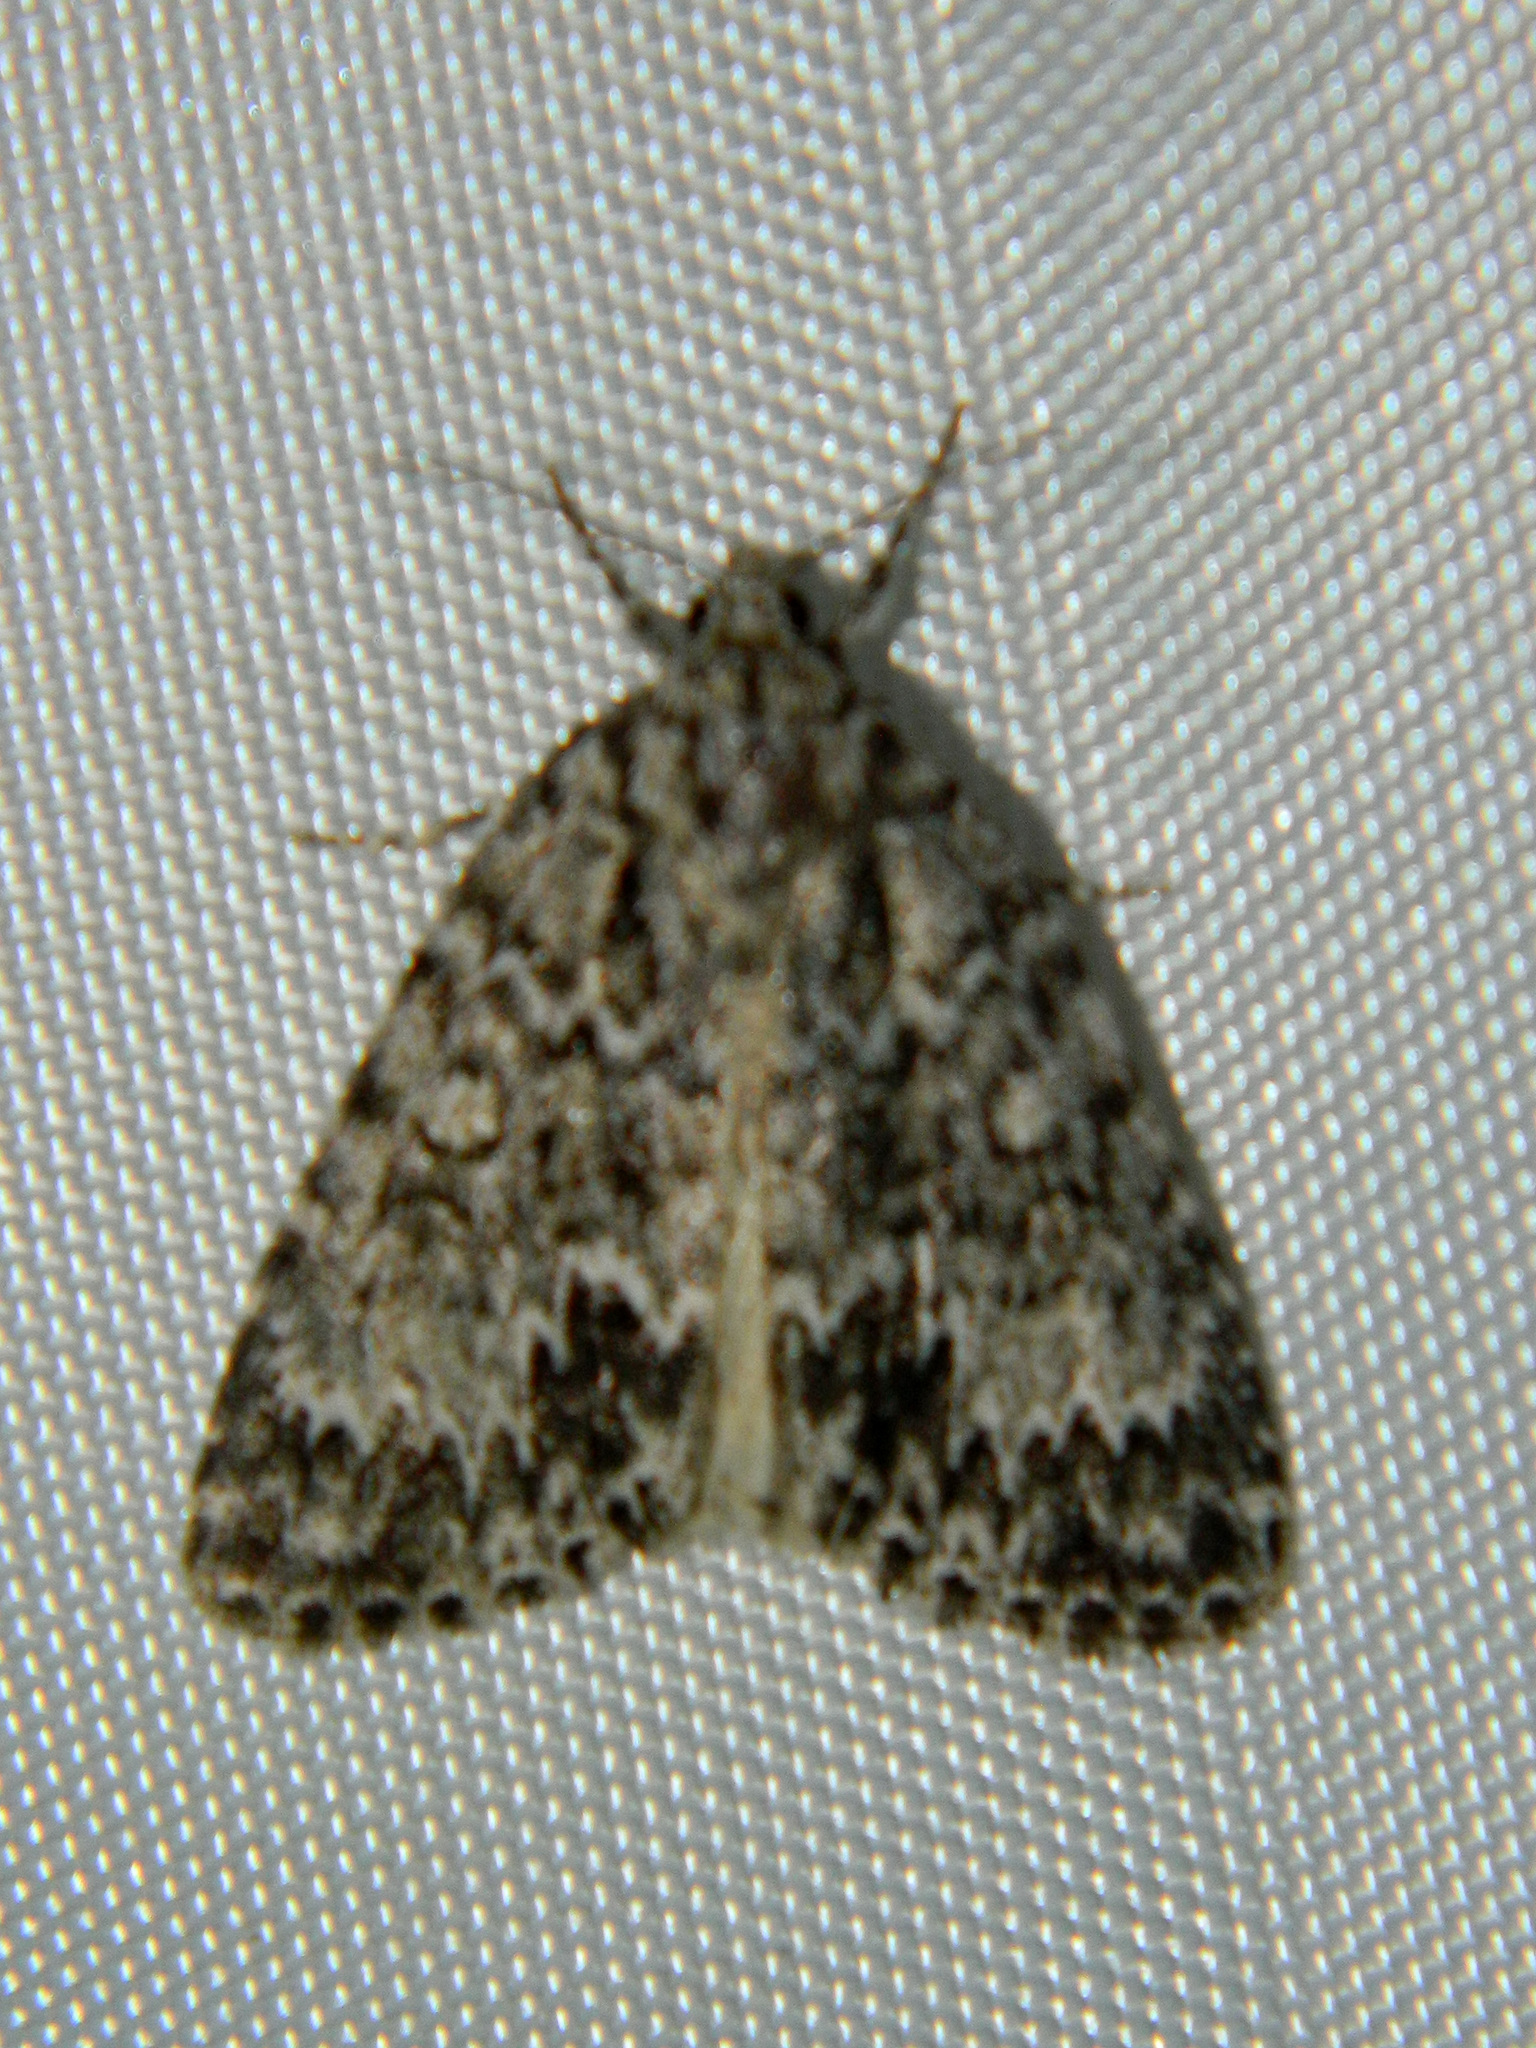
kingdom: Animalia
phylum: Arthropoda
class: Insecta
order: Lepidoptera
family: Noctuidae
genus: Acronicta
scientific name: Acronicta fragilis
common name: Fragile dagger
